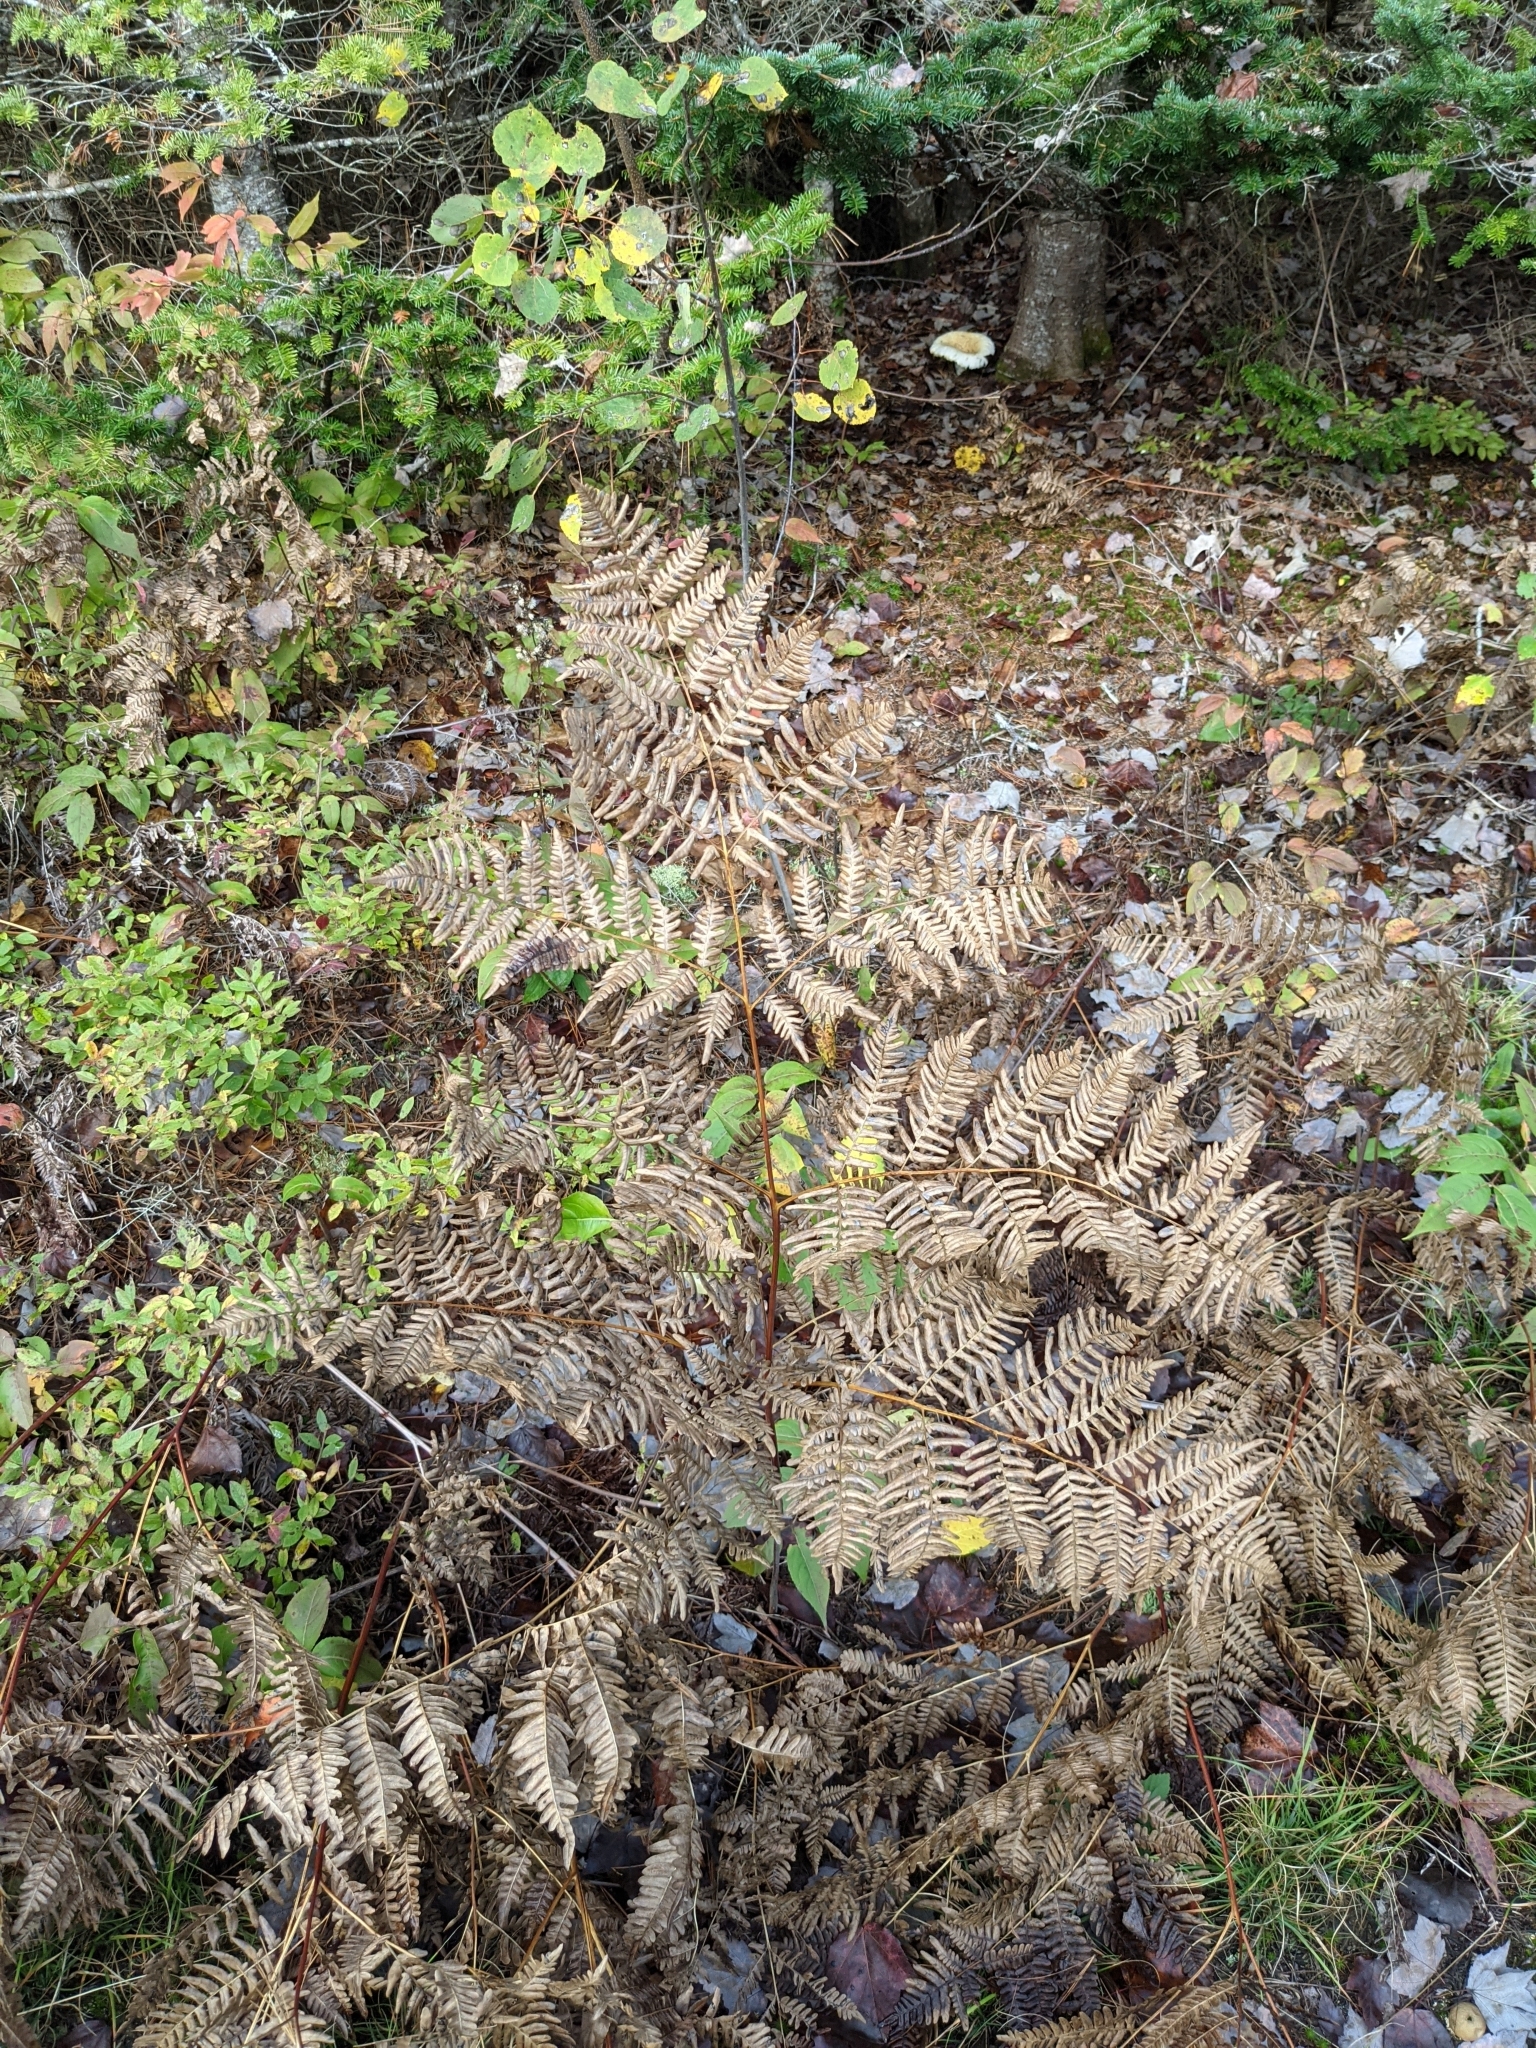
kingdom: Plantae
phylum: Tracheophyta
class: Polypodiopsida
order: Polypodiales
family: Dennstaedtiaceae
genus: Pteridium
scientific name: Pteridium aquilinum
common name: Bracken
